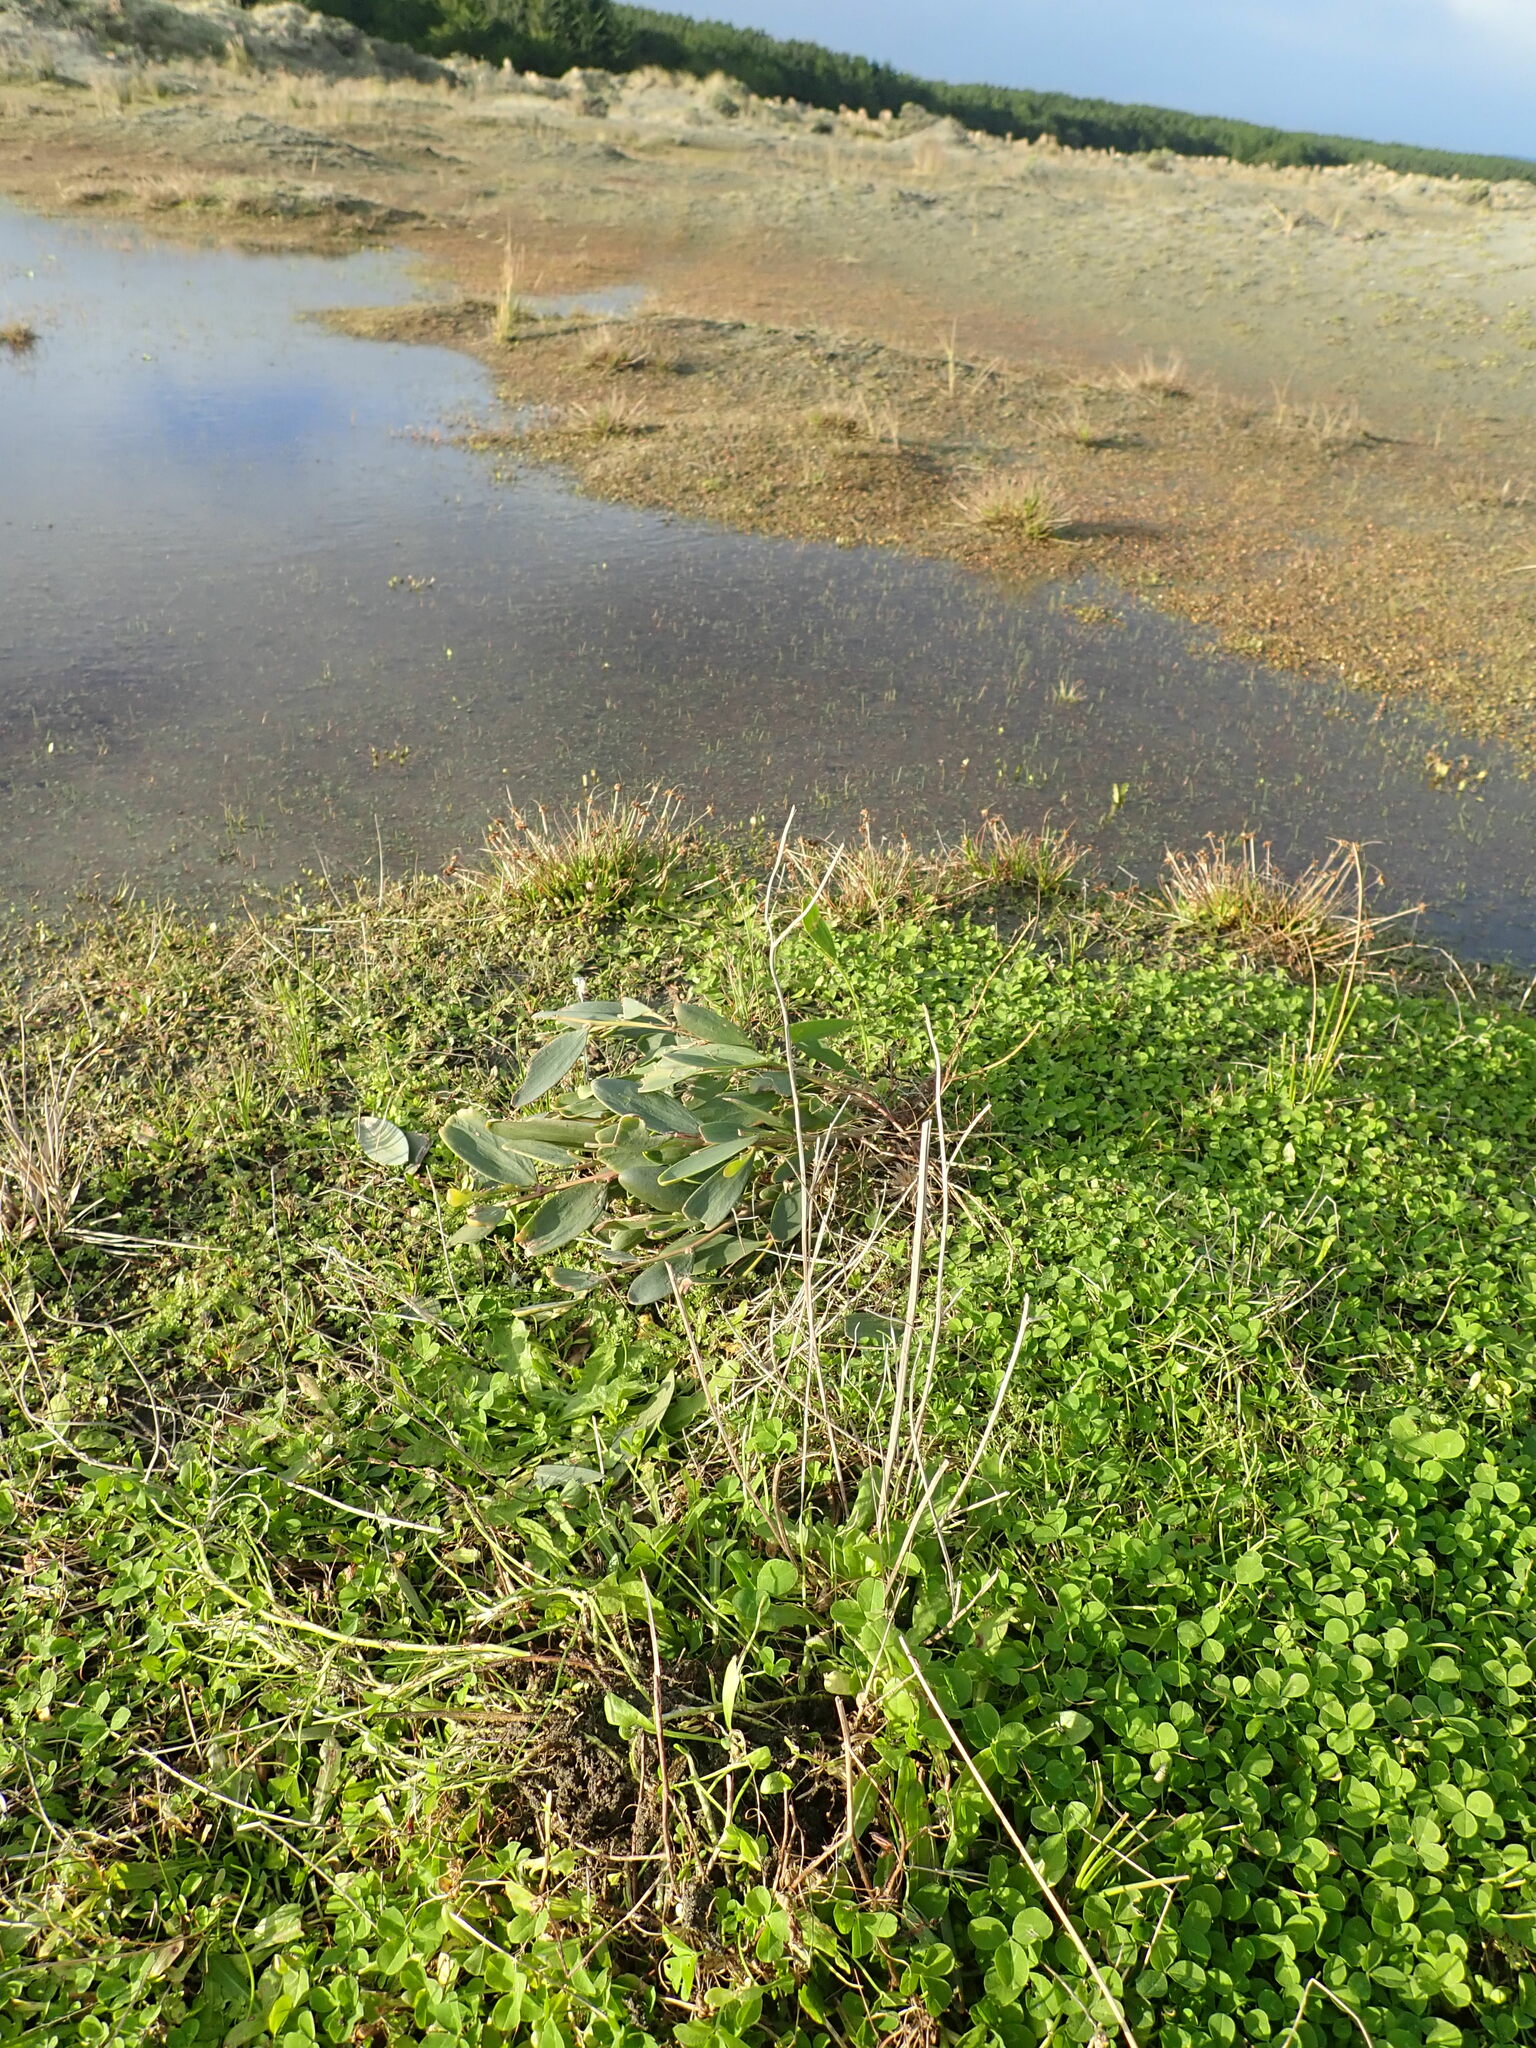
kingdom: Plantae
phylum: Tracheophyta
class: Magnoliopsida
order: Fabales
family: Fabaceae
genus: Acacia
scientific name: Acacia longifolia
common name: Sydney golden wattle
